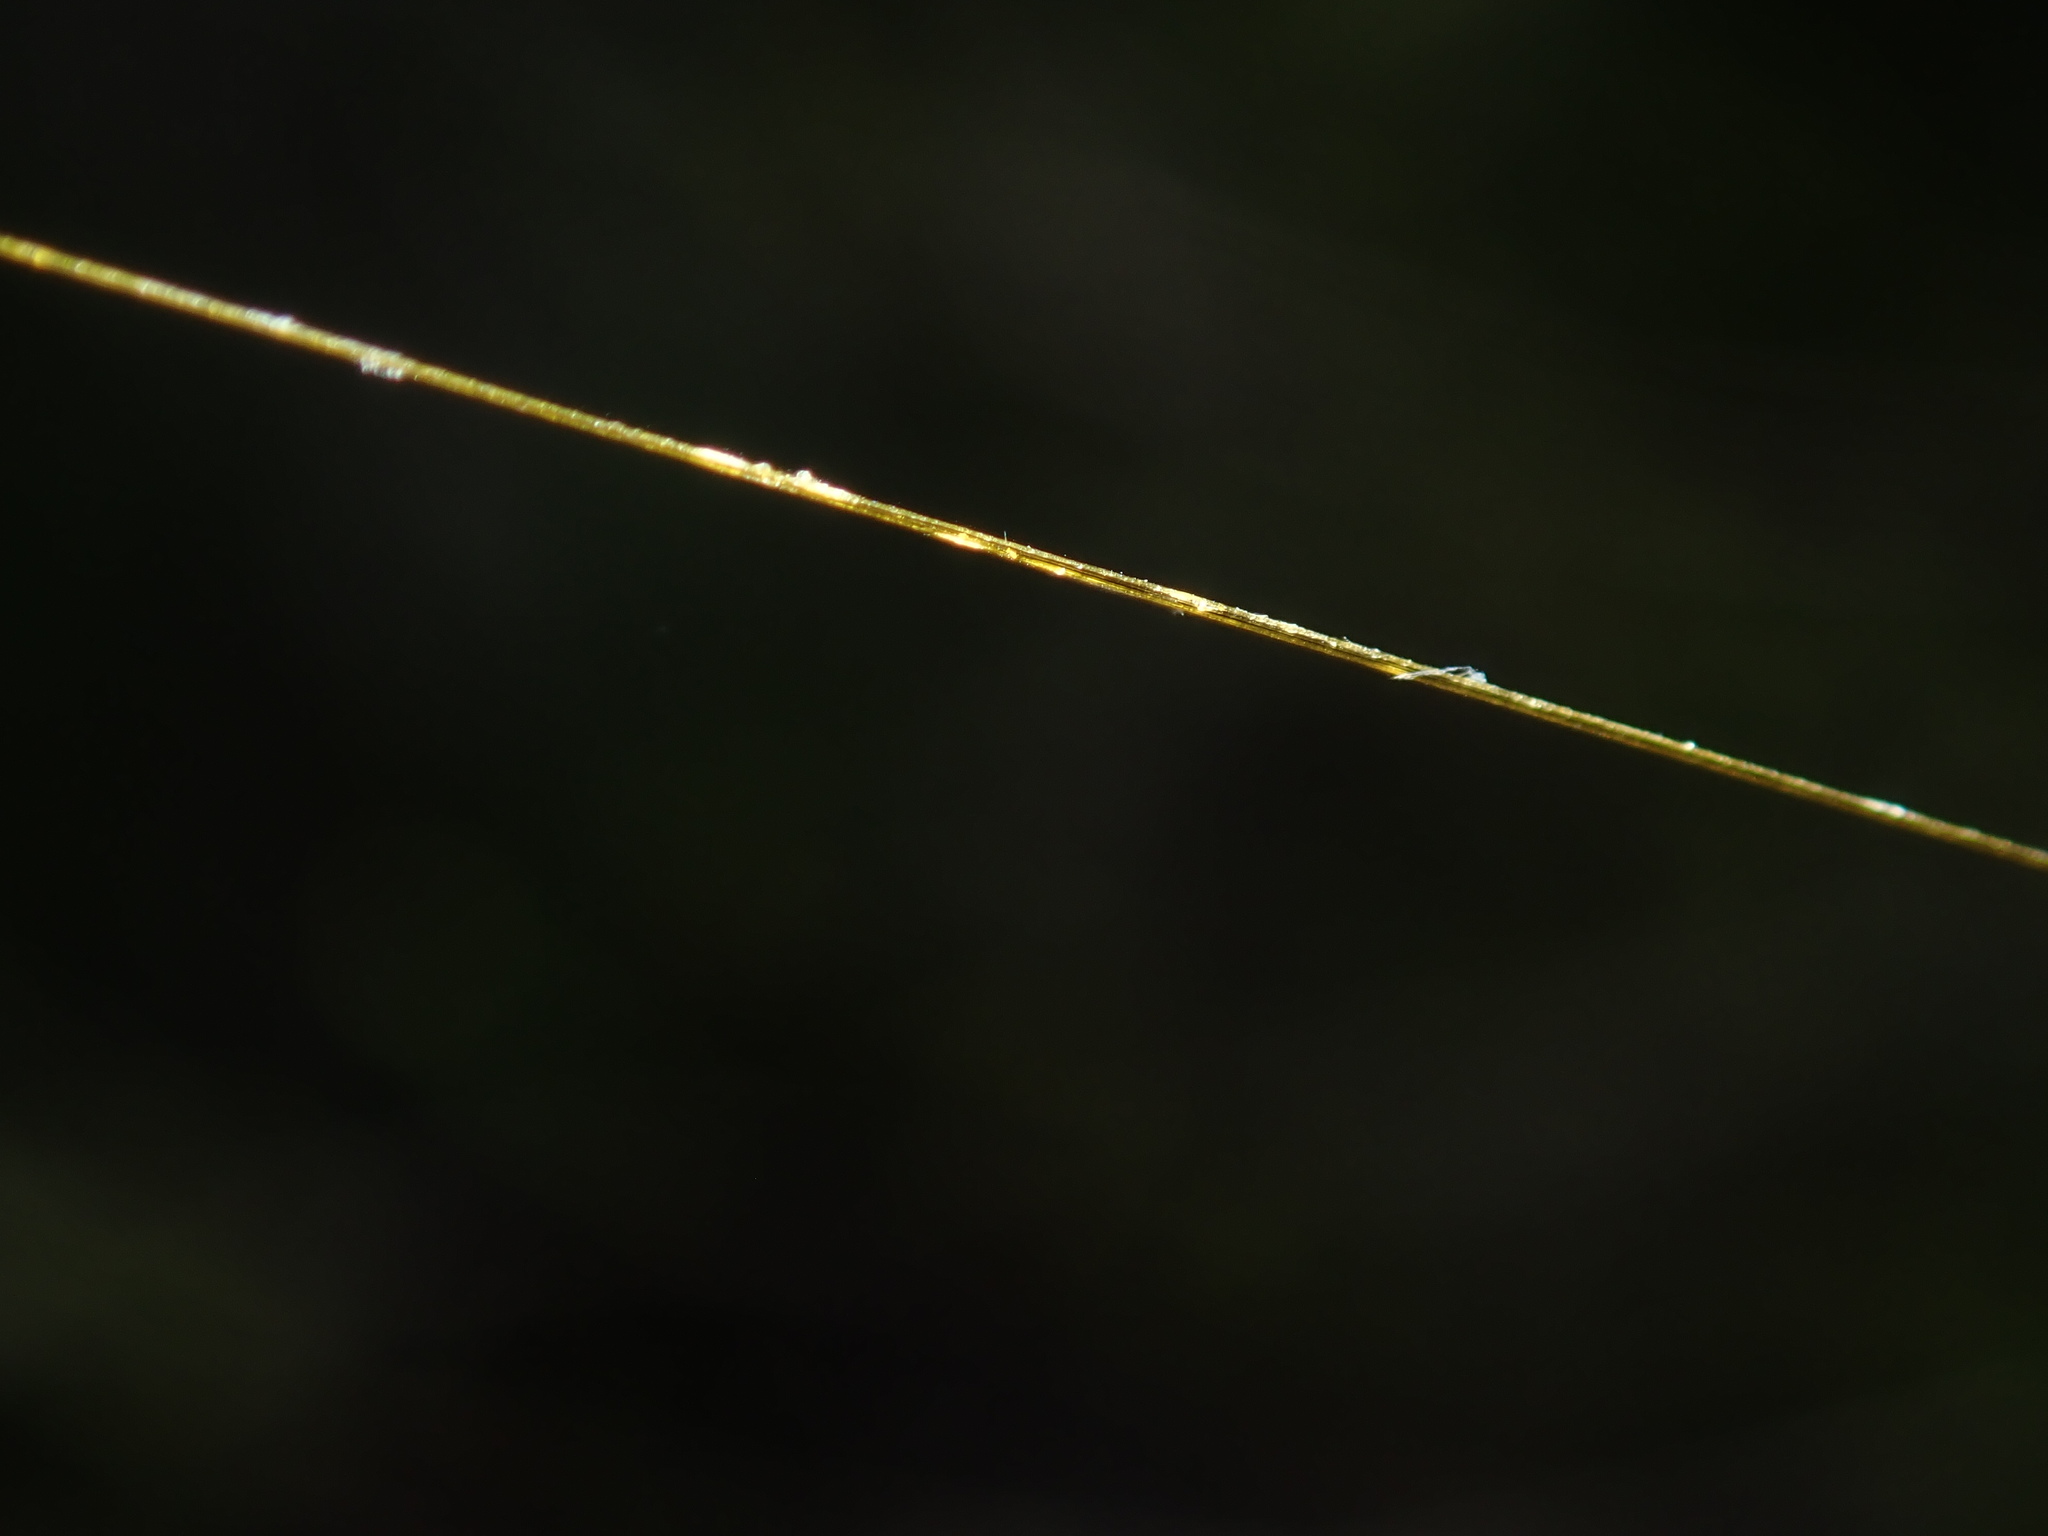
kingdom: Animalia
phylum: Arthropoda
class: Arachnida
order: Araneae
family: Araneidae
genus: Trichonephila
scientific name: Trichonephila plumipes
